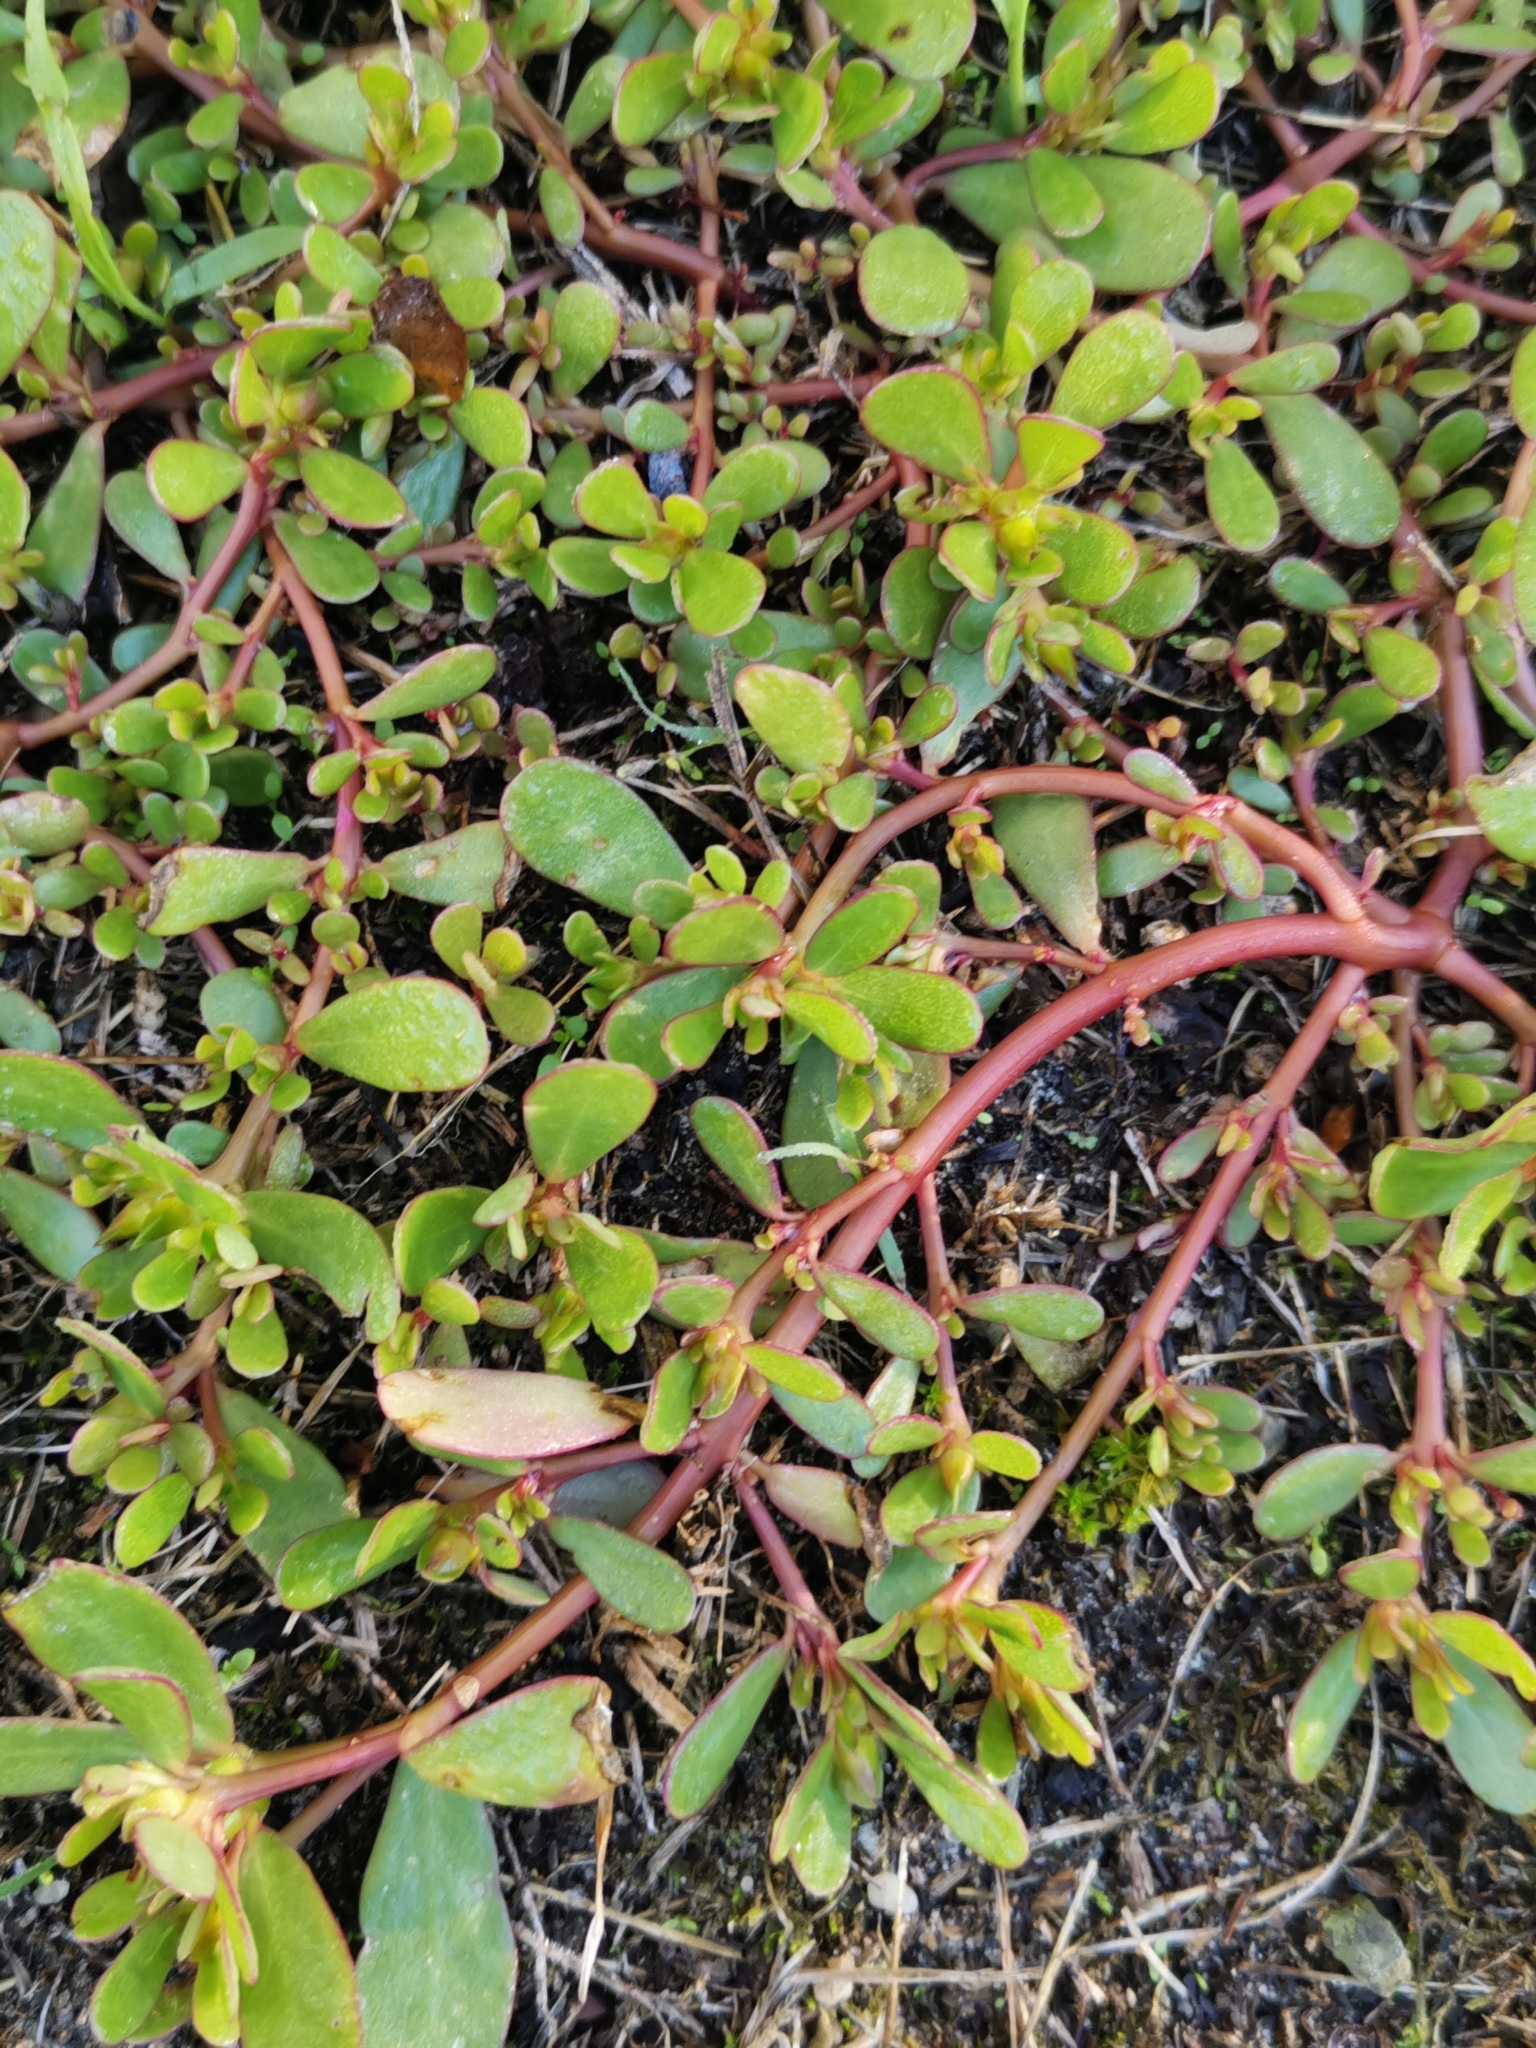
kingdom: Plantae
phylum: Tracheophyta
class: Magnoliopsida
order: Caryophyllales
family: Portulacaceae
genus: Portulaca
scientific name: Portulaca oleracea
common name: Common purslane
